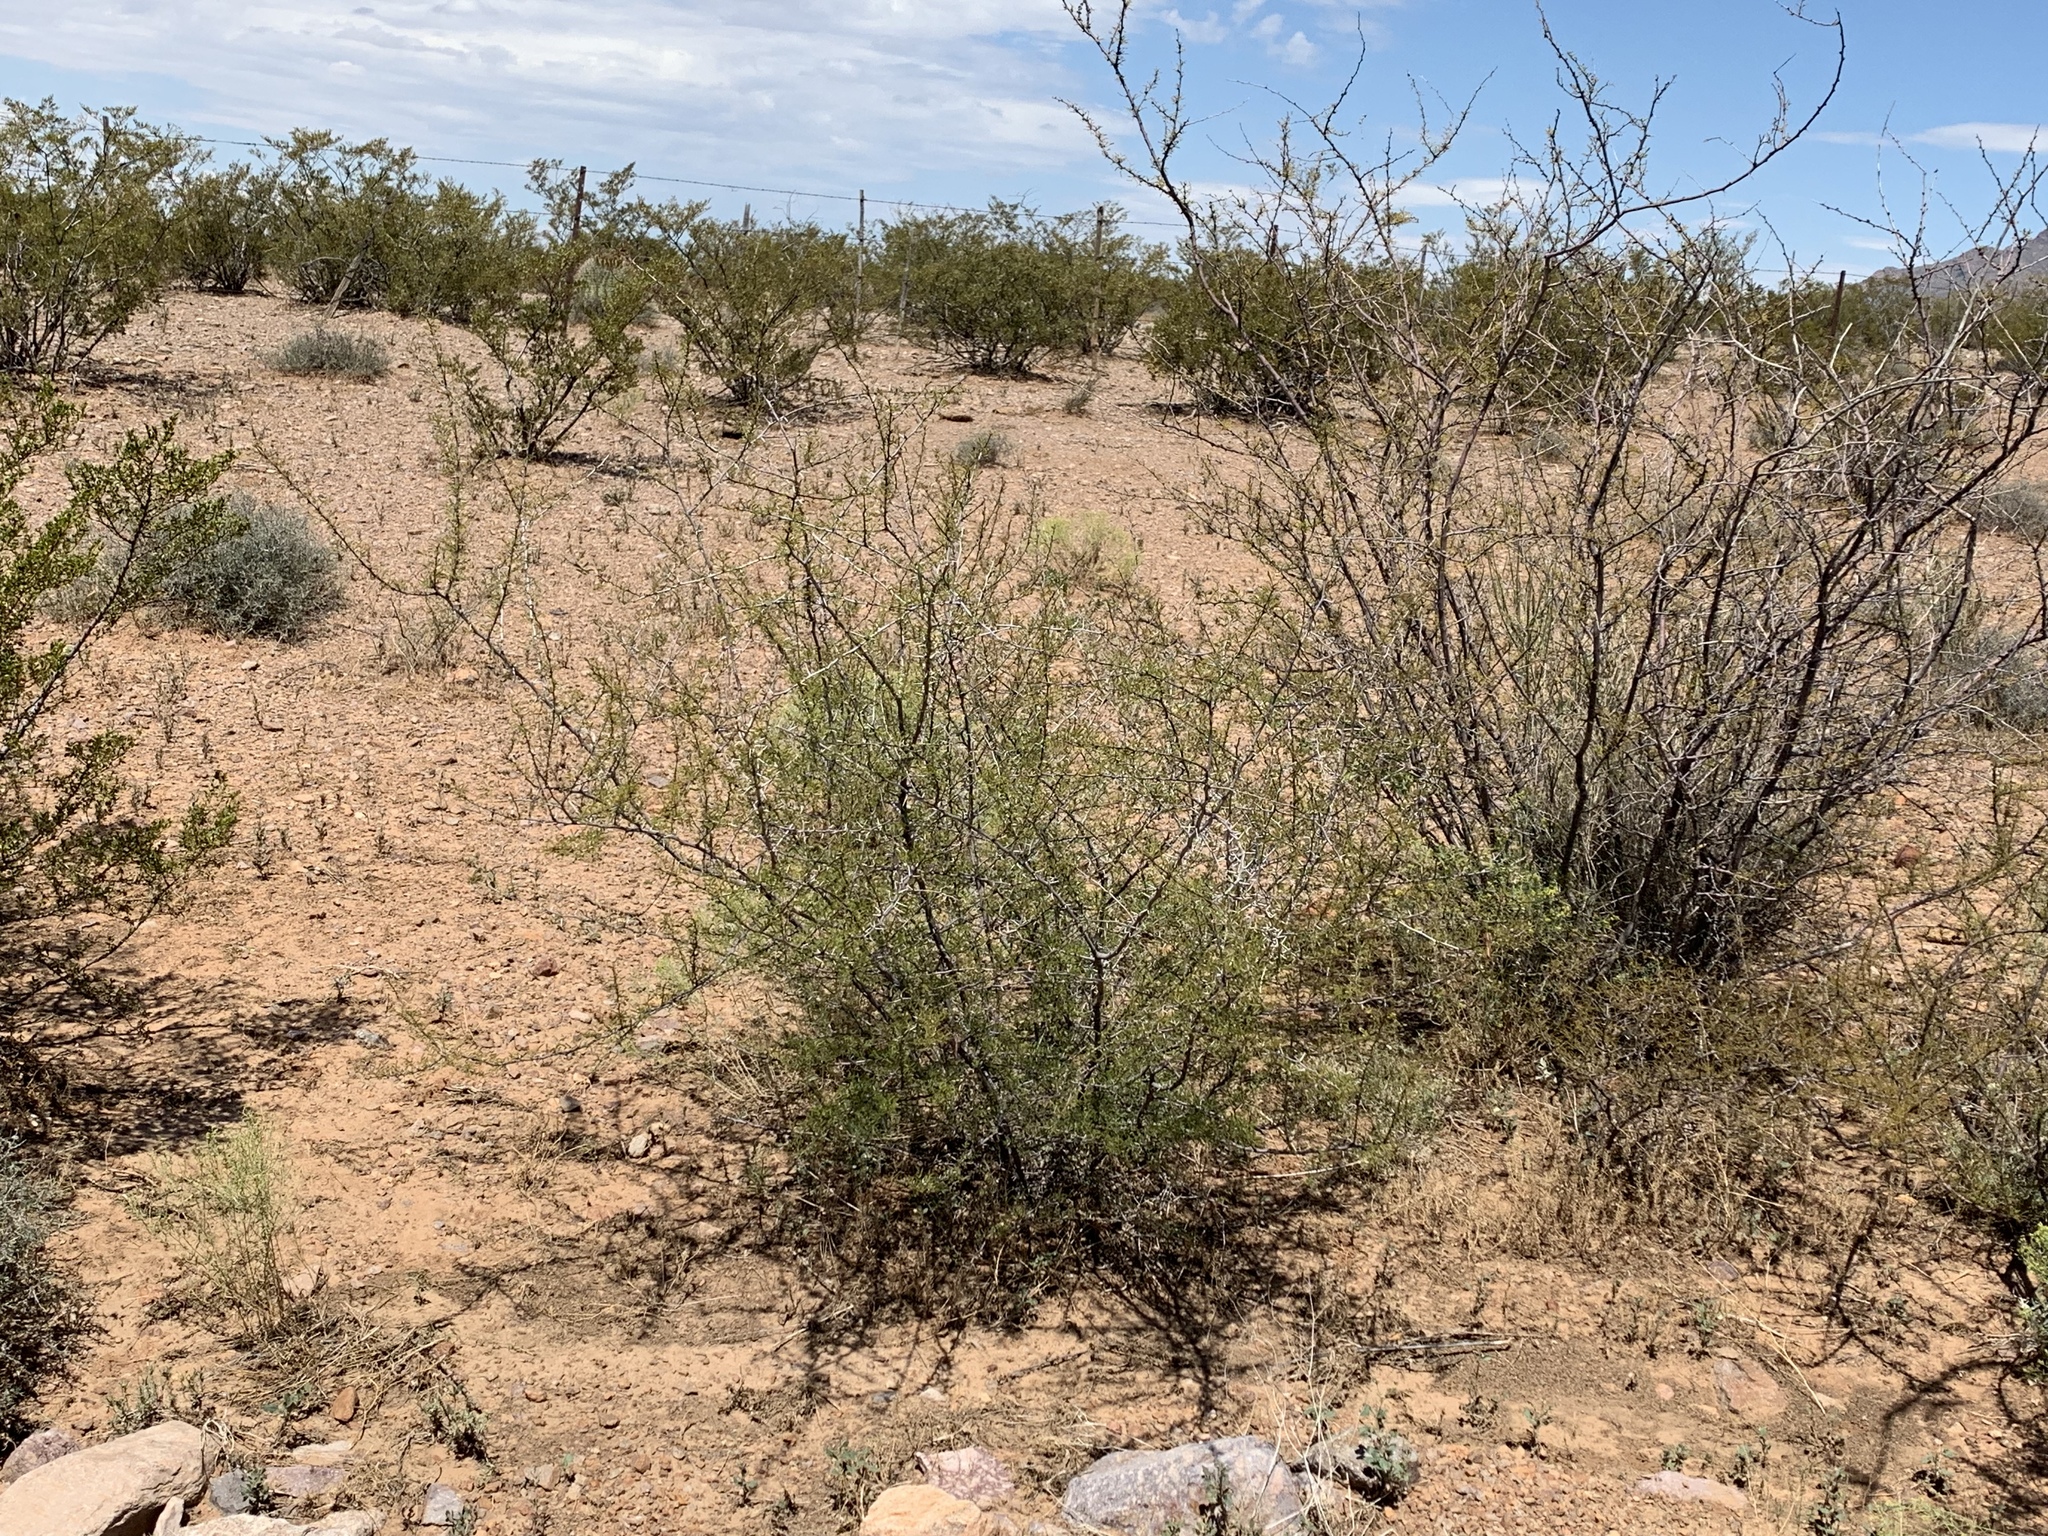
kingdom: Plantae
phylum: Tracheophyta
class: Magnoliopsida
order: Fabales
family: Fabaceae
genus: Vachellia
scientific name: Vachellia constricta
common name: Mescat acacia
